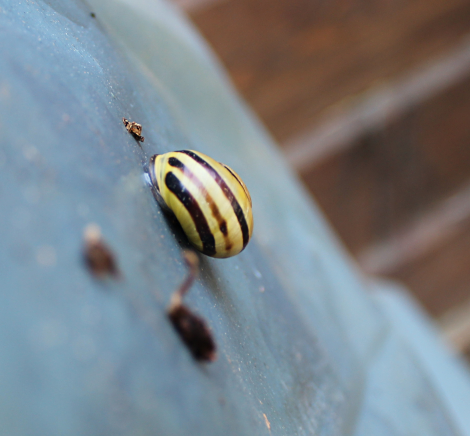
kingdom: Animalia
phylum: Mollusca
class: Gastropoda
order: Stylommatophora
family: Helicidae
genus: Cepaea
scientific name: Cepaea nemoralis
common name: Grovesnail
